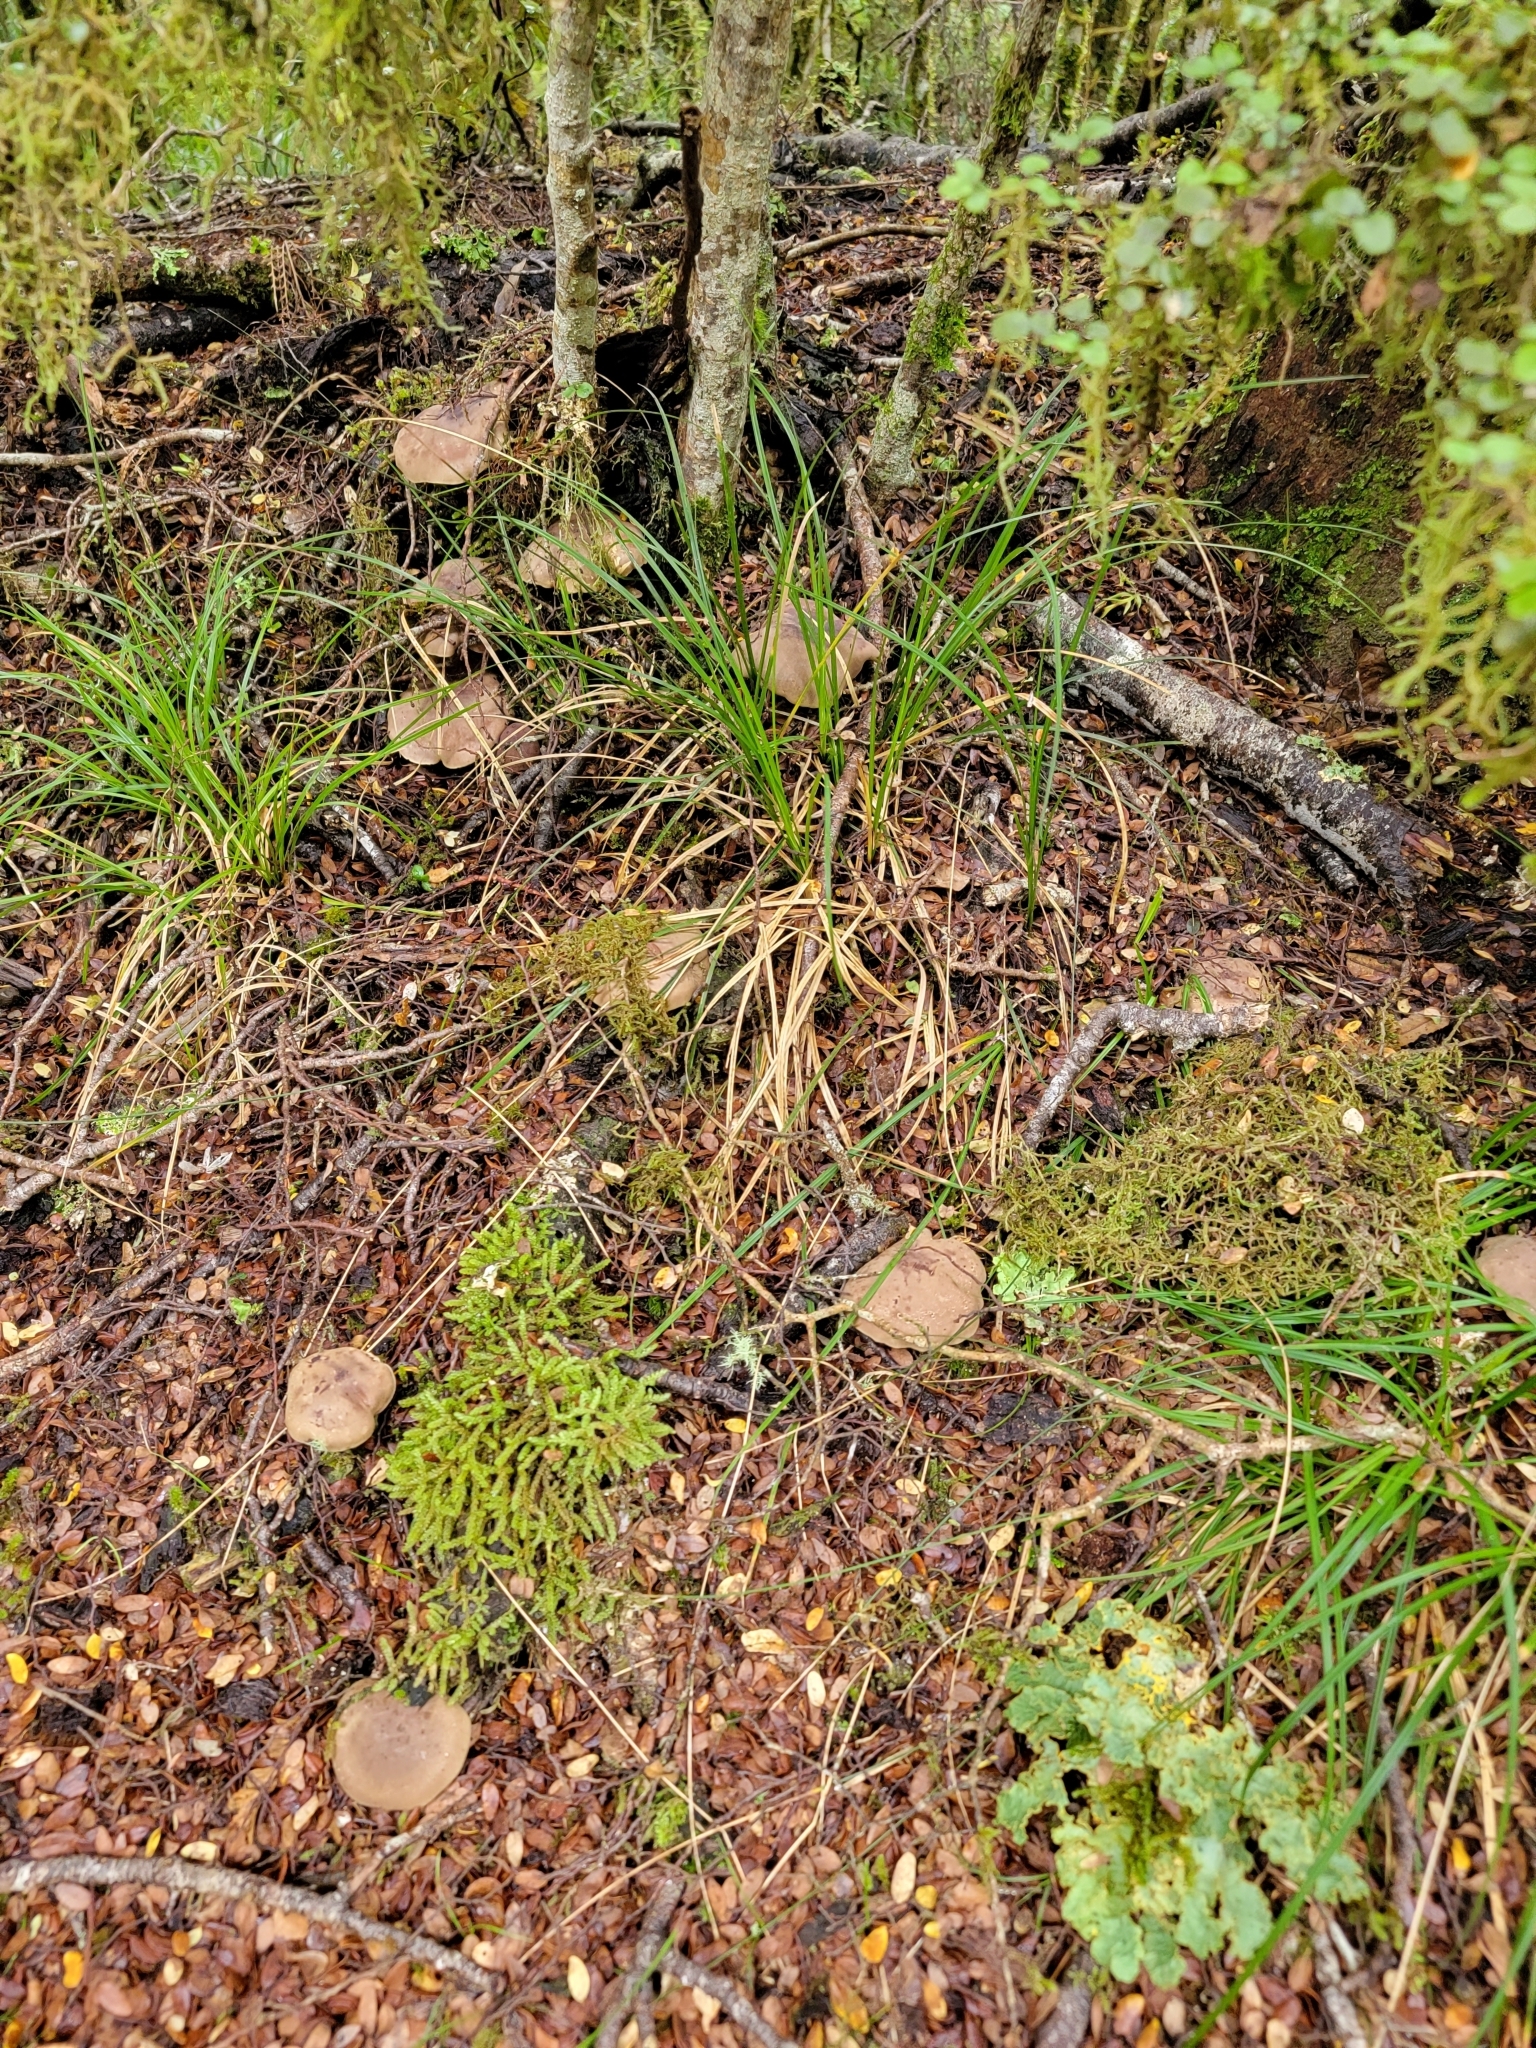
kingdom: Fungi
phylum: Basidiomycota
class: Agaricomycetes
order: Agaricales
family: Tricholomataceae
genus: Clitocybe
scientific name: Clitocybe eucalyptorum
